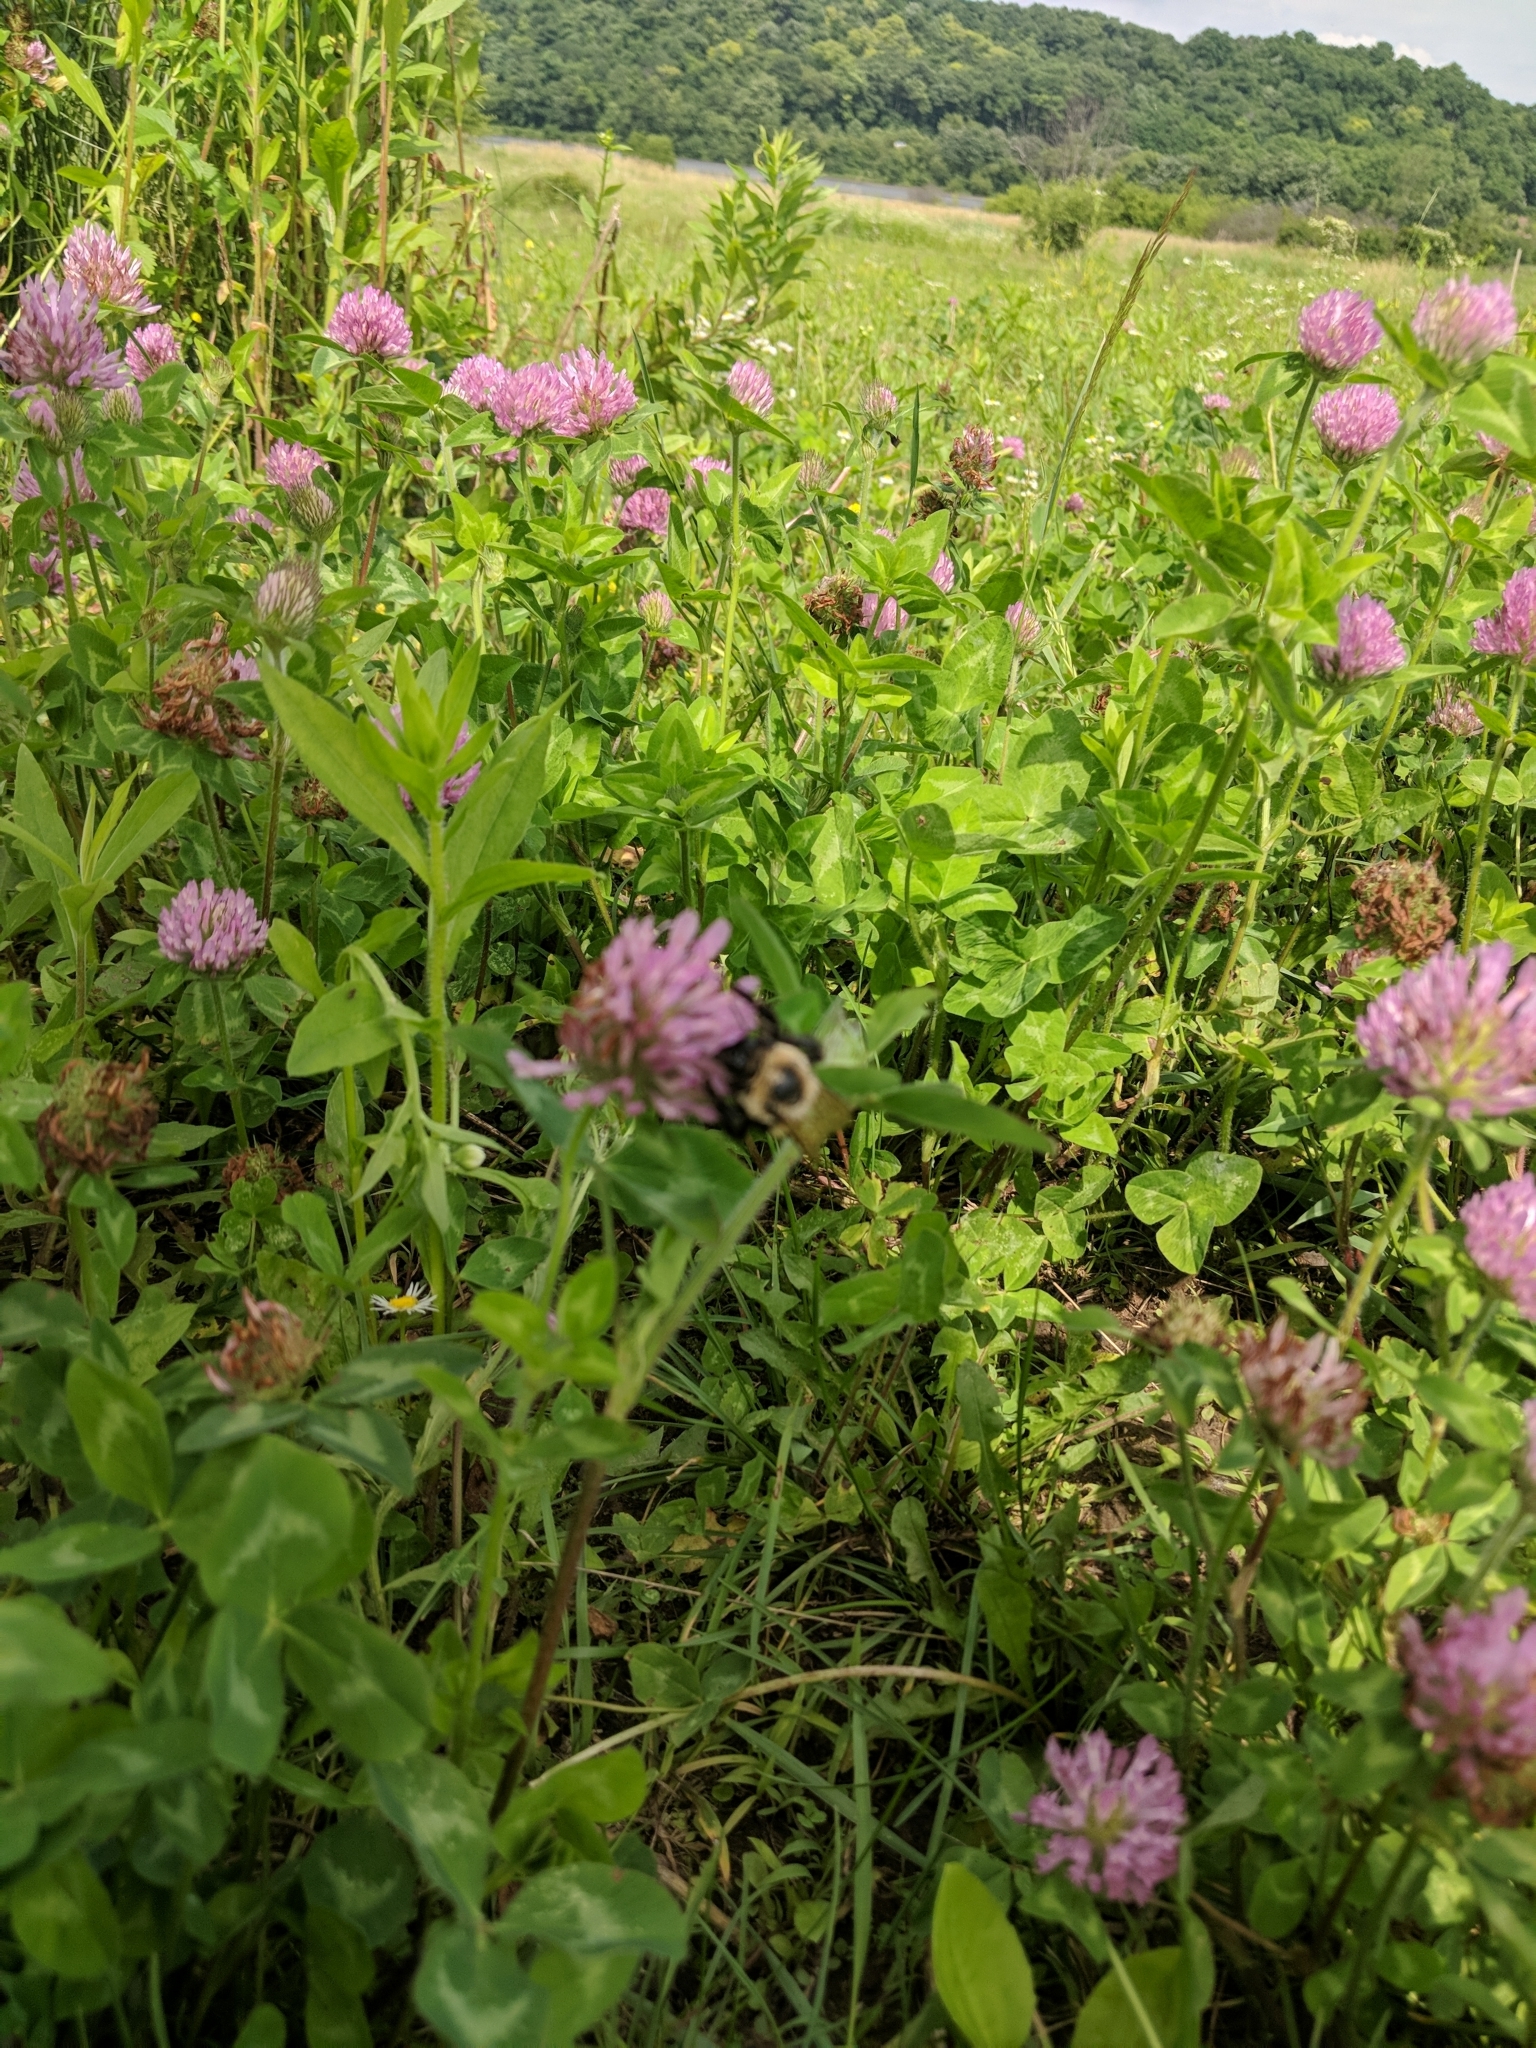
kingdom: Plantae
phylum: Tracheophyta
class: Magnoliopsida
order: Fabales
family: Fabaceae
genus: Trifolium
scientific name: Trifolium pratense
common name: Red clover
